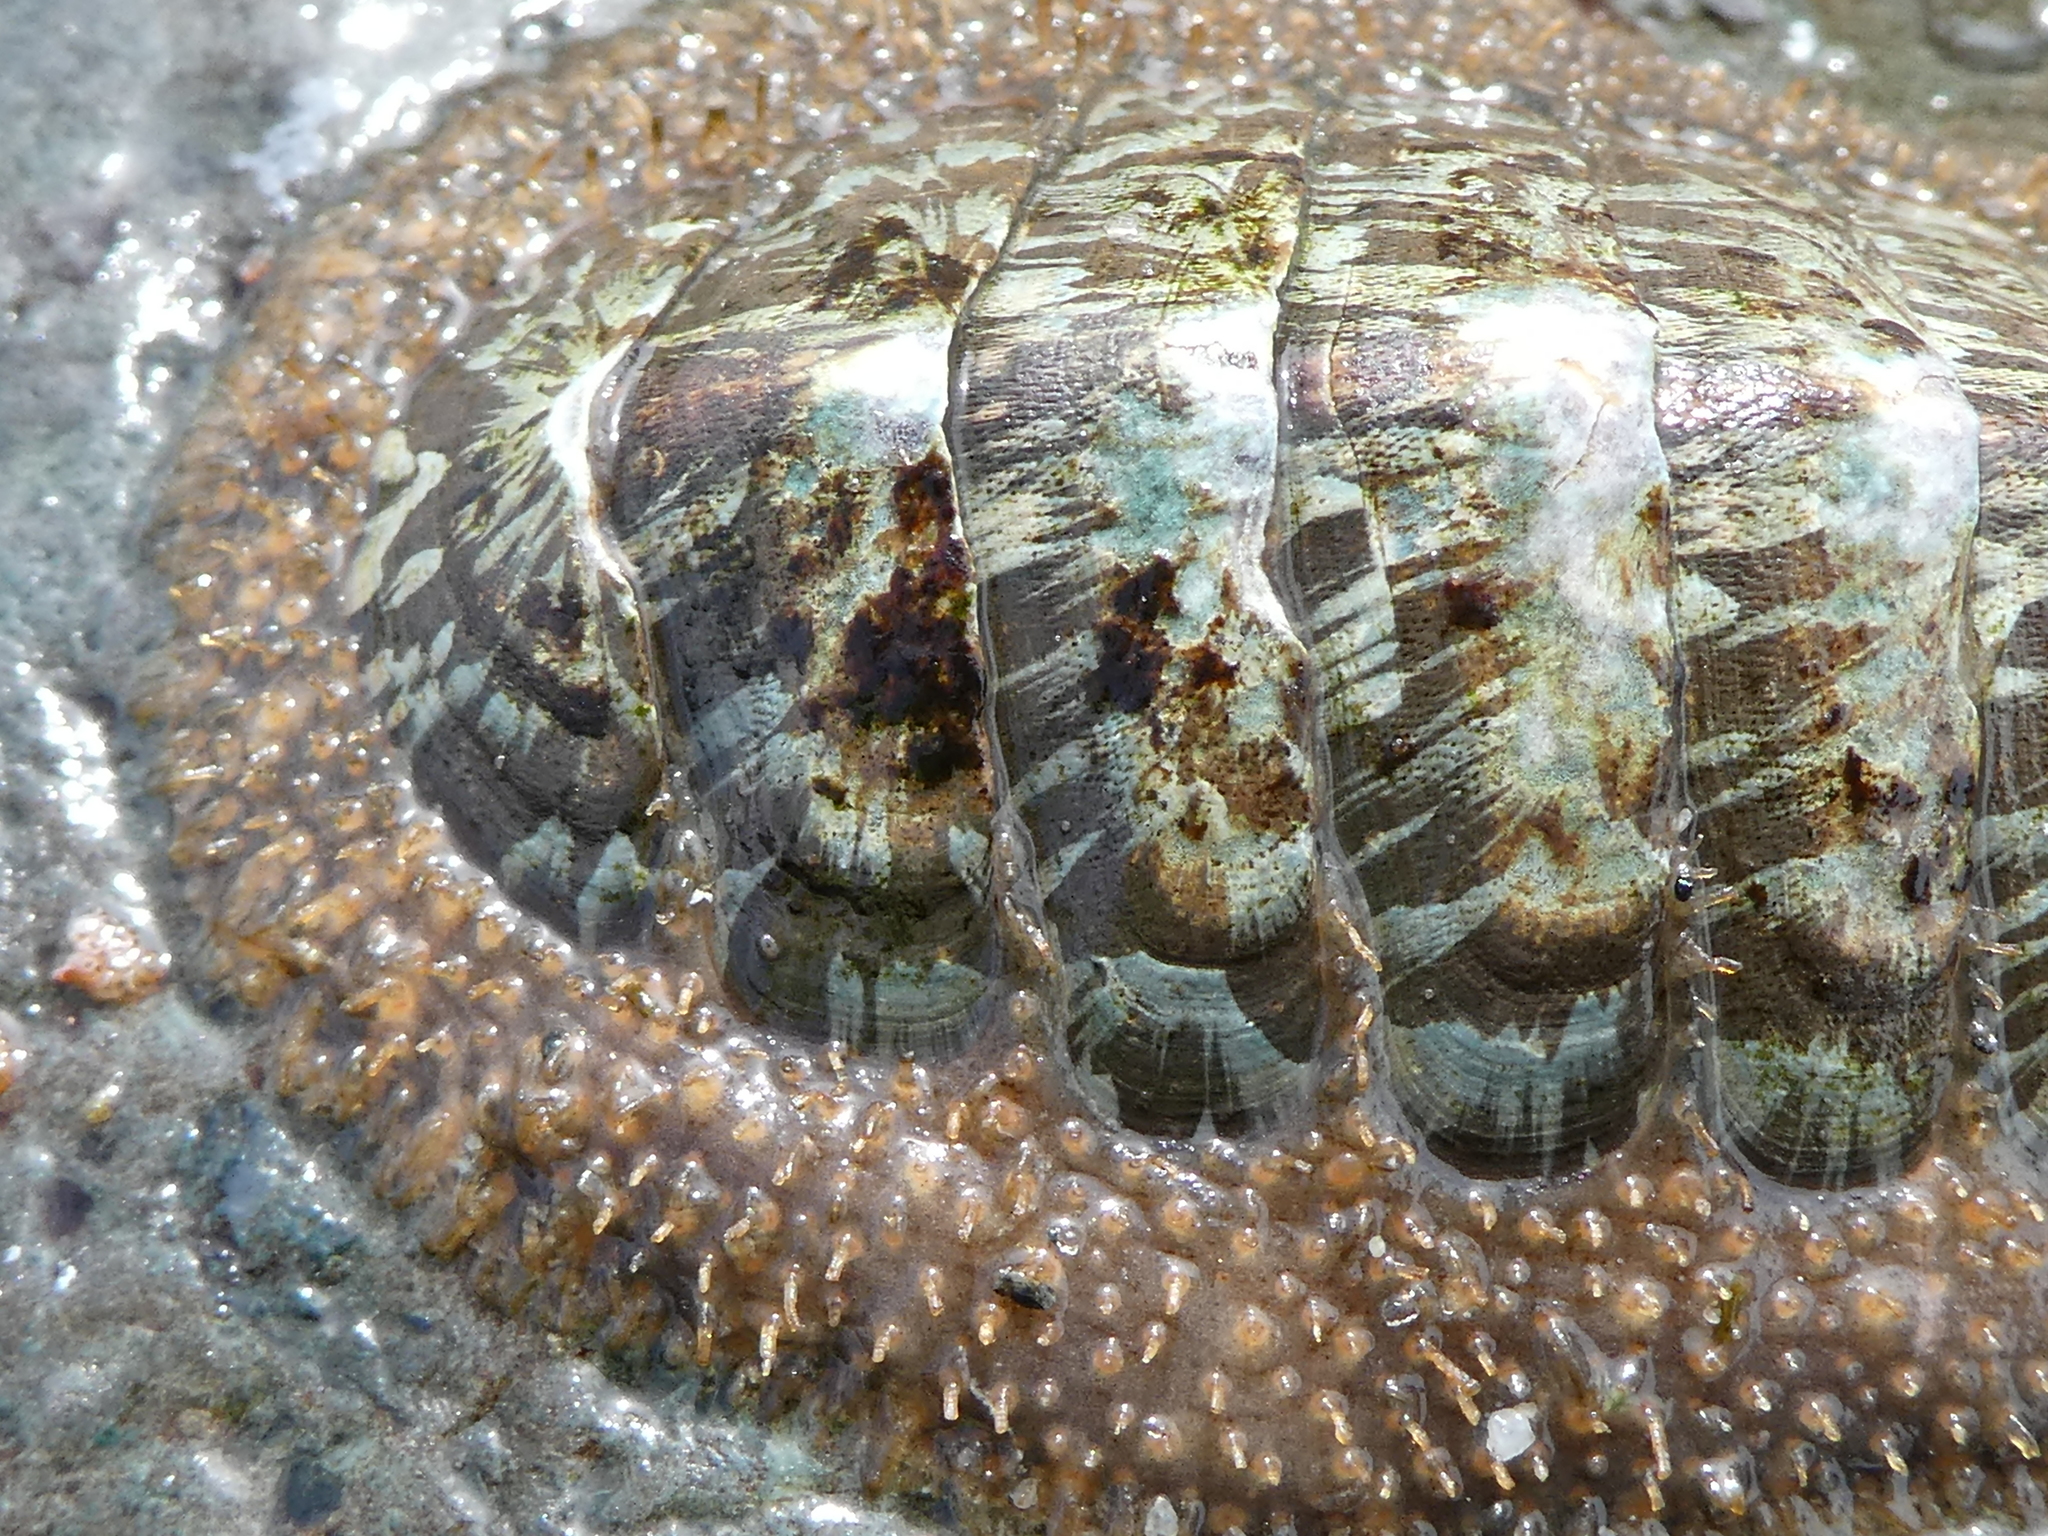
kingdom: Animalia
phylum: Mollusca
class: Polyplacophora
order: Chitonida
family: Mopaliidae
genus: Mopalia
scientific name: Mopalia lignosa
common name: Woody chiton
